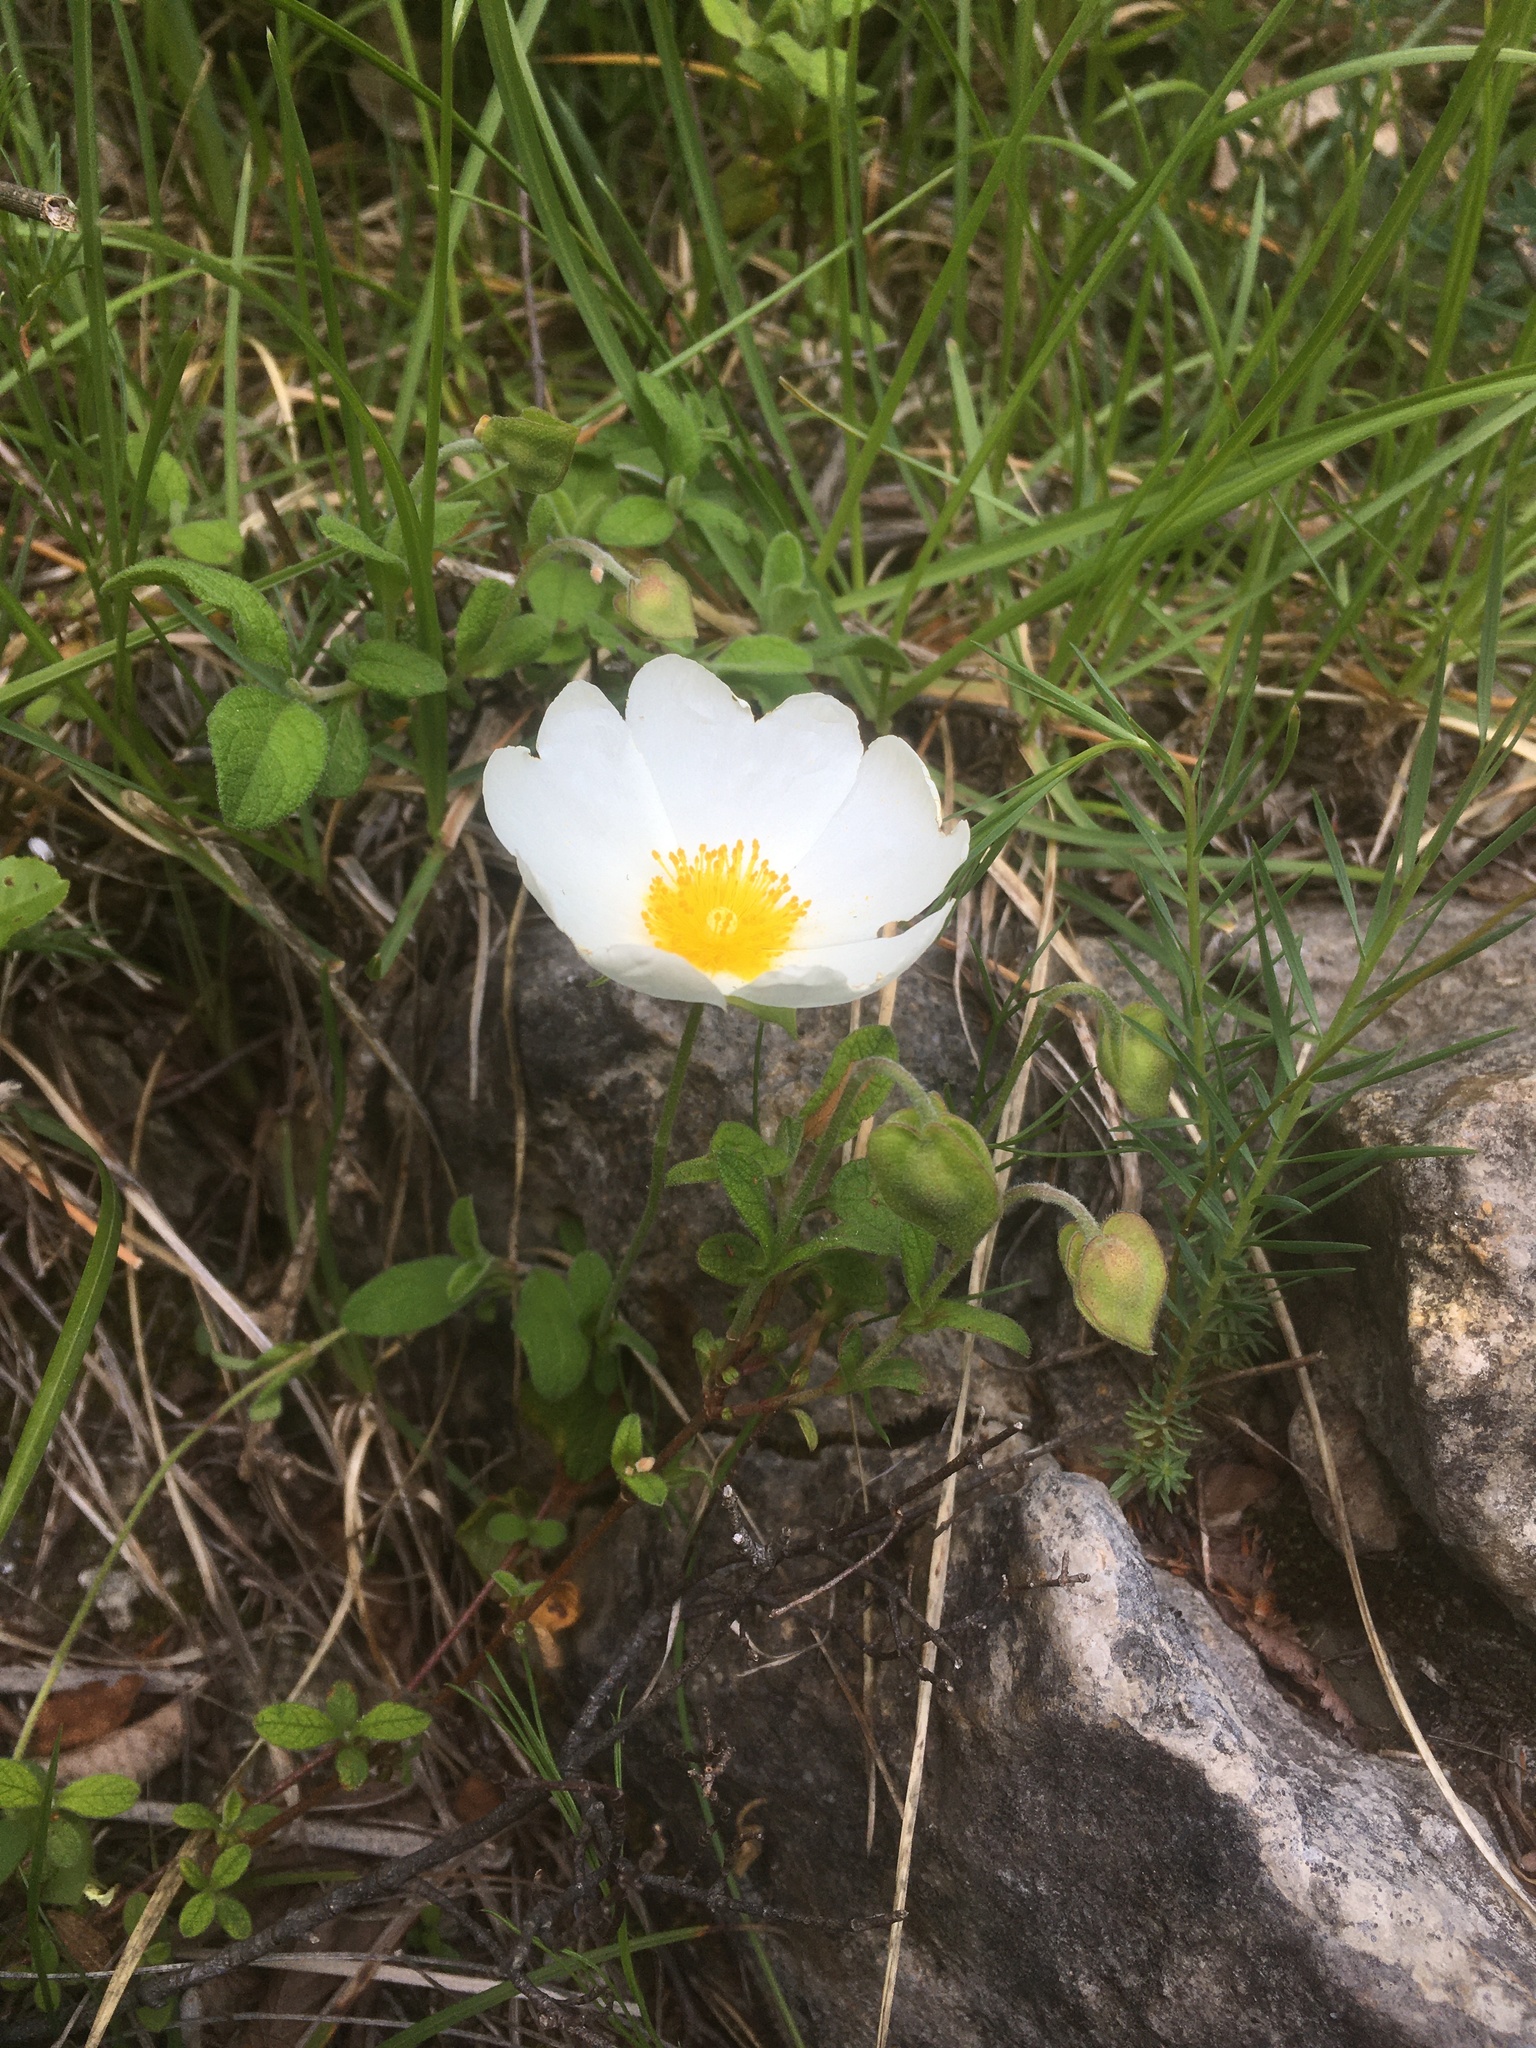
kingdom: Plantae
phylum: Tracheophyta
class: Magnoliopsida
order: Malvales
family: Cistaceae
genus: Cistus
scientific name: Cistus salviifolius
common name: Salvia cistus
